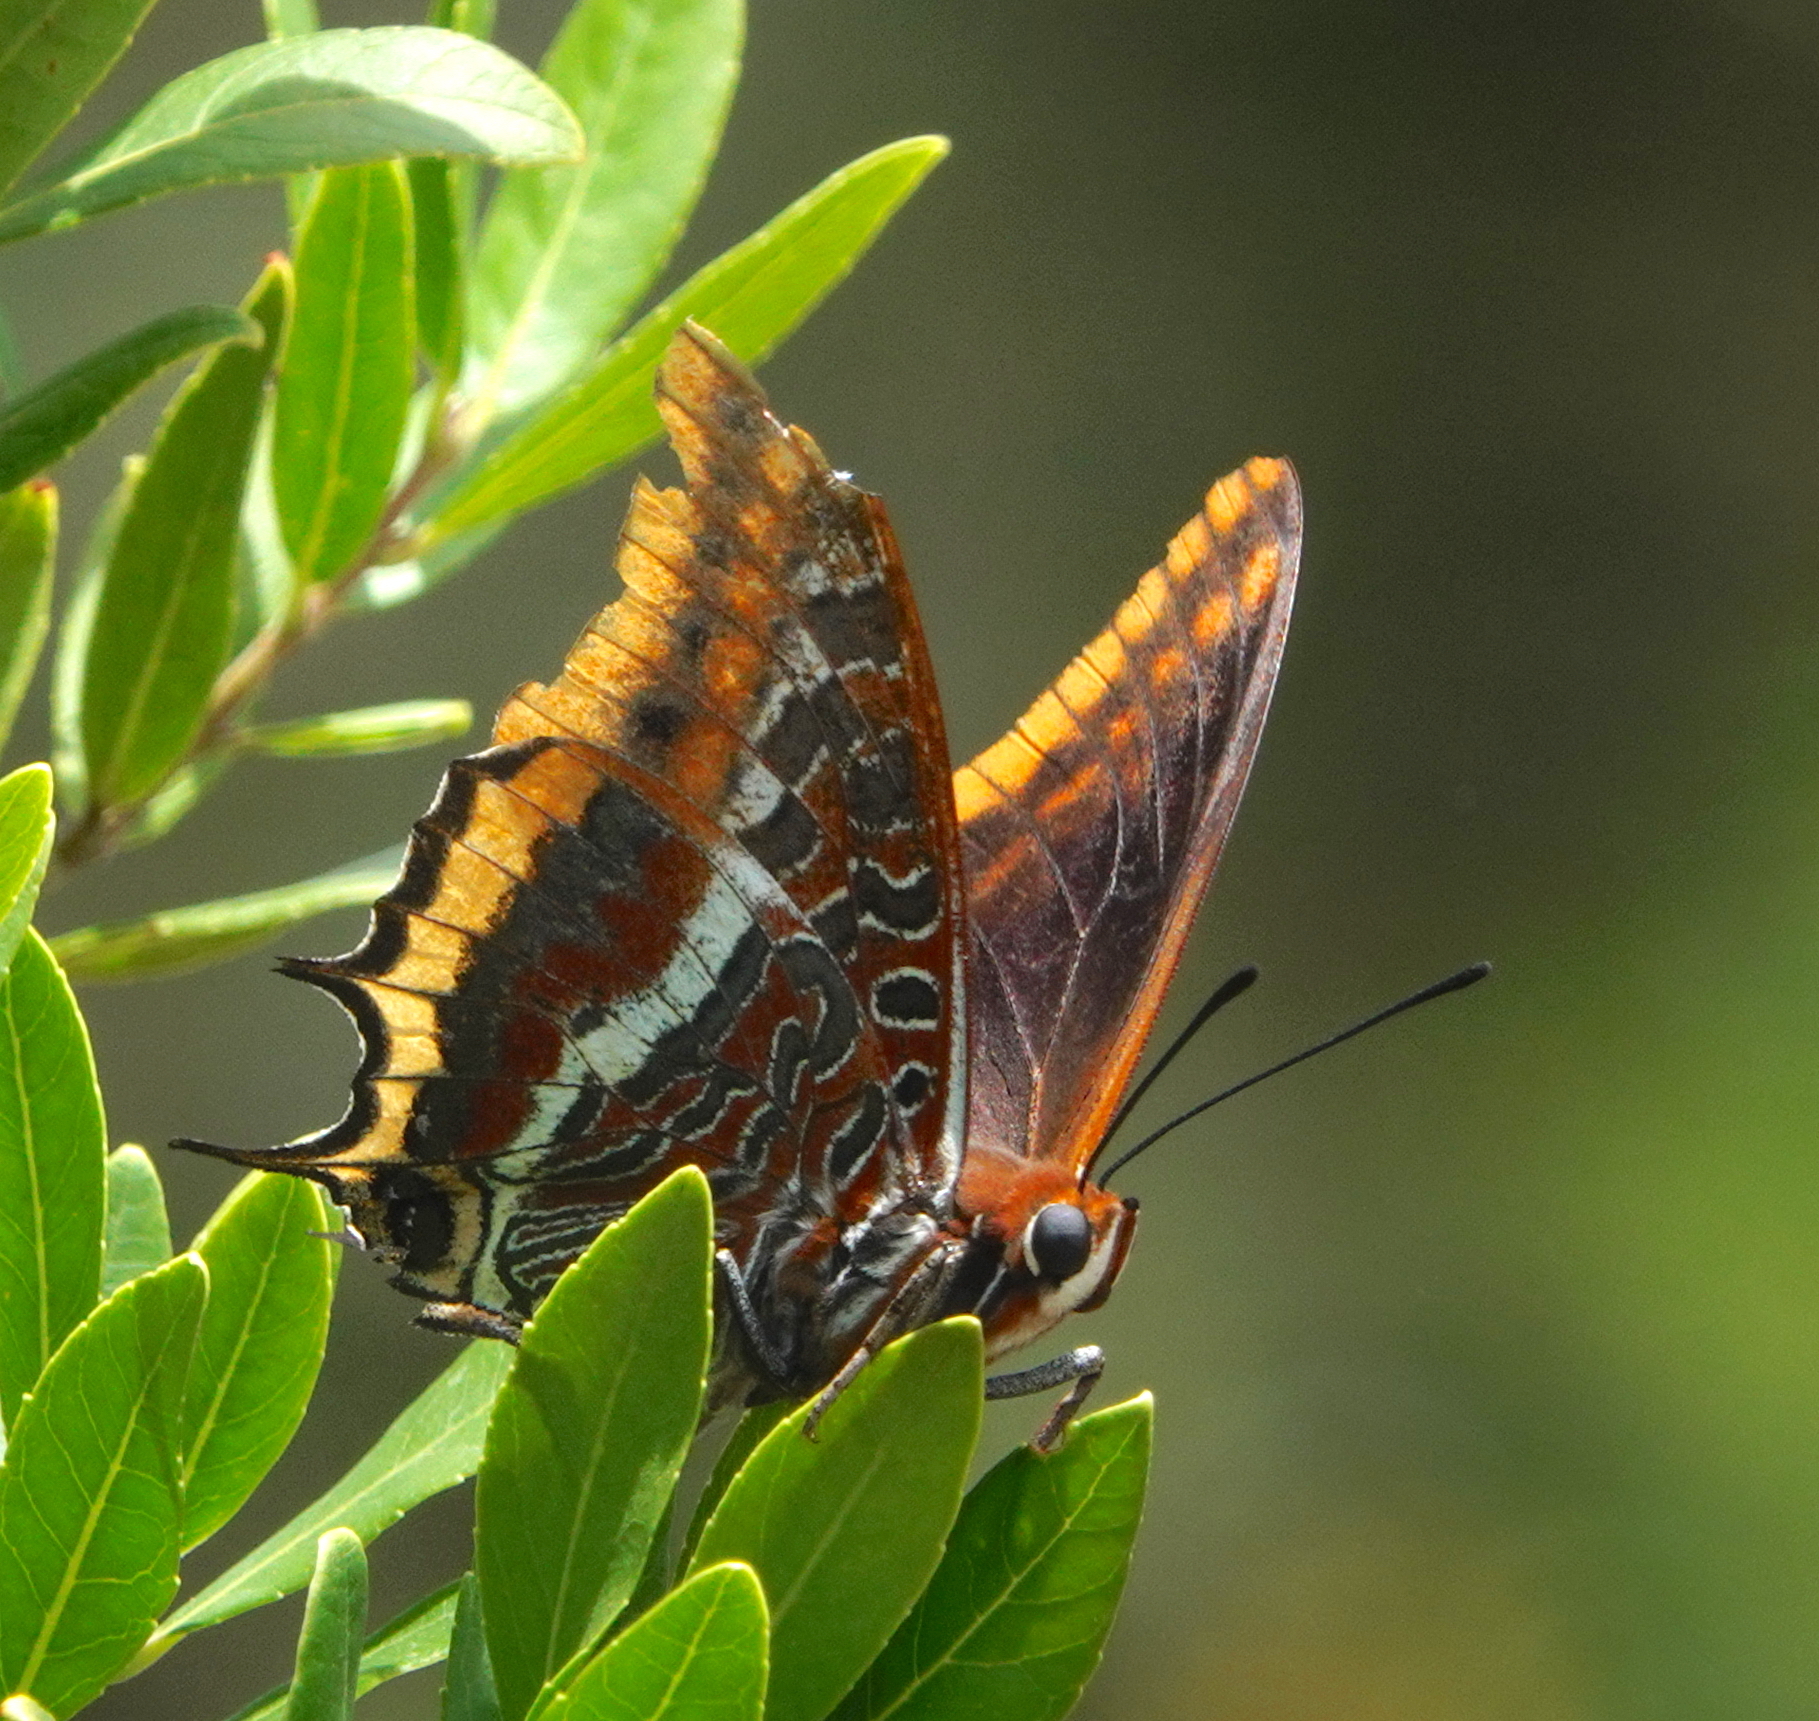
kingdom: Animalia
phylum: Arthropoda
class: Insecta
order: Lepidoptera
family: Nymphalidae
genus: Charaxes
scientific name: Charaxes jasius
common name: Two tailed pasha
